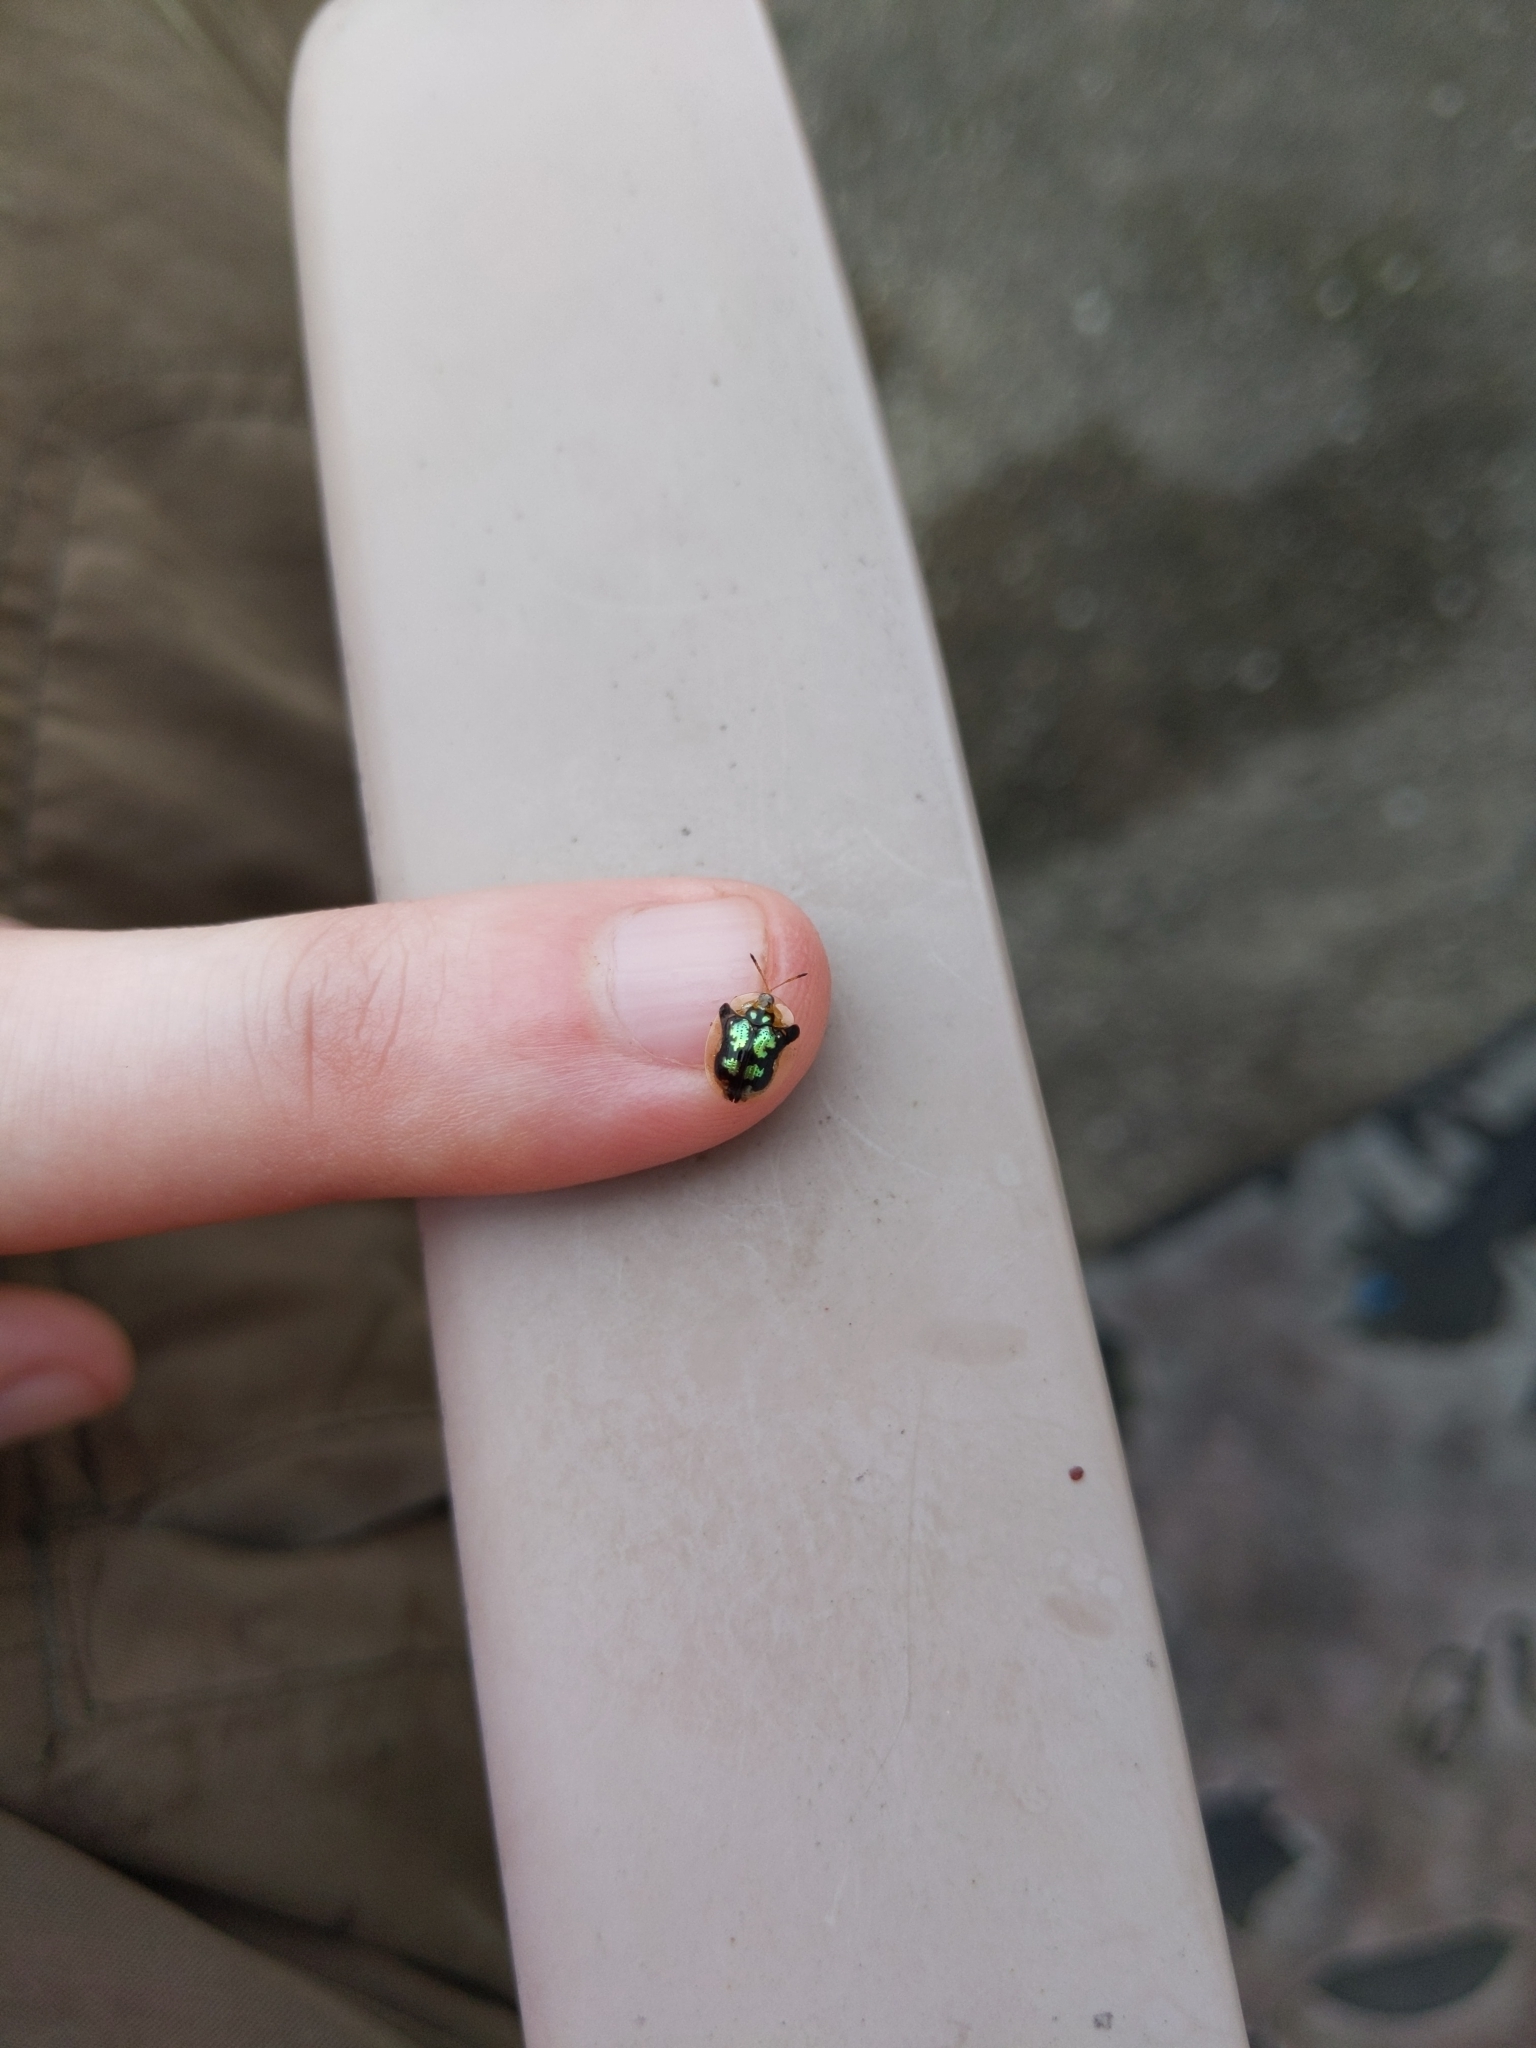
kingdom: Animalia
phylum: Arthropoda
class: Insecta
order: Coleoptera
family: Chrysomelidae
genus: Deloyala
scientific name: Deloyala guttata
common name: Mottled tortoise beetle
